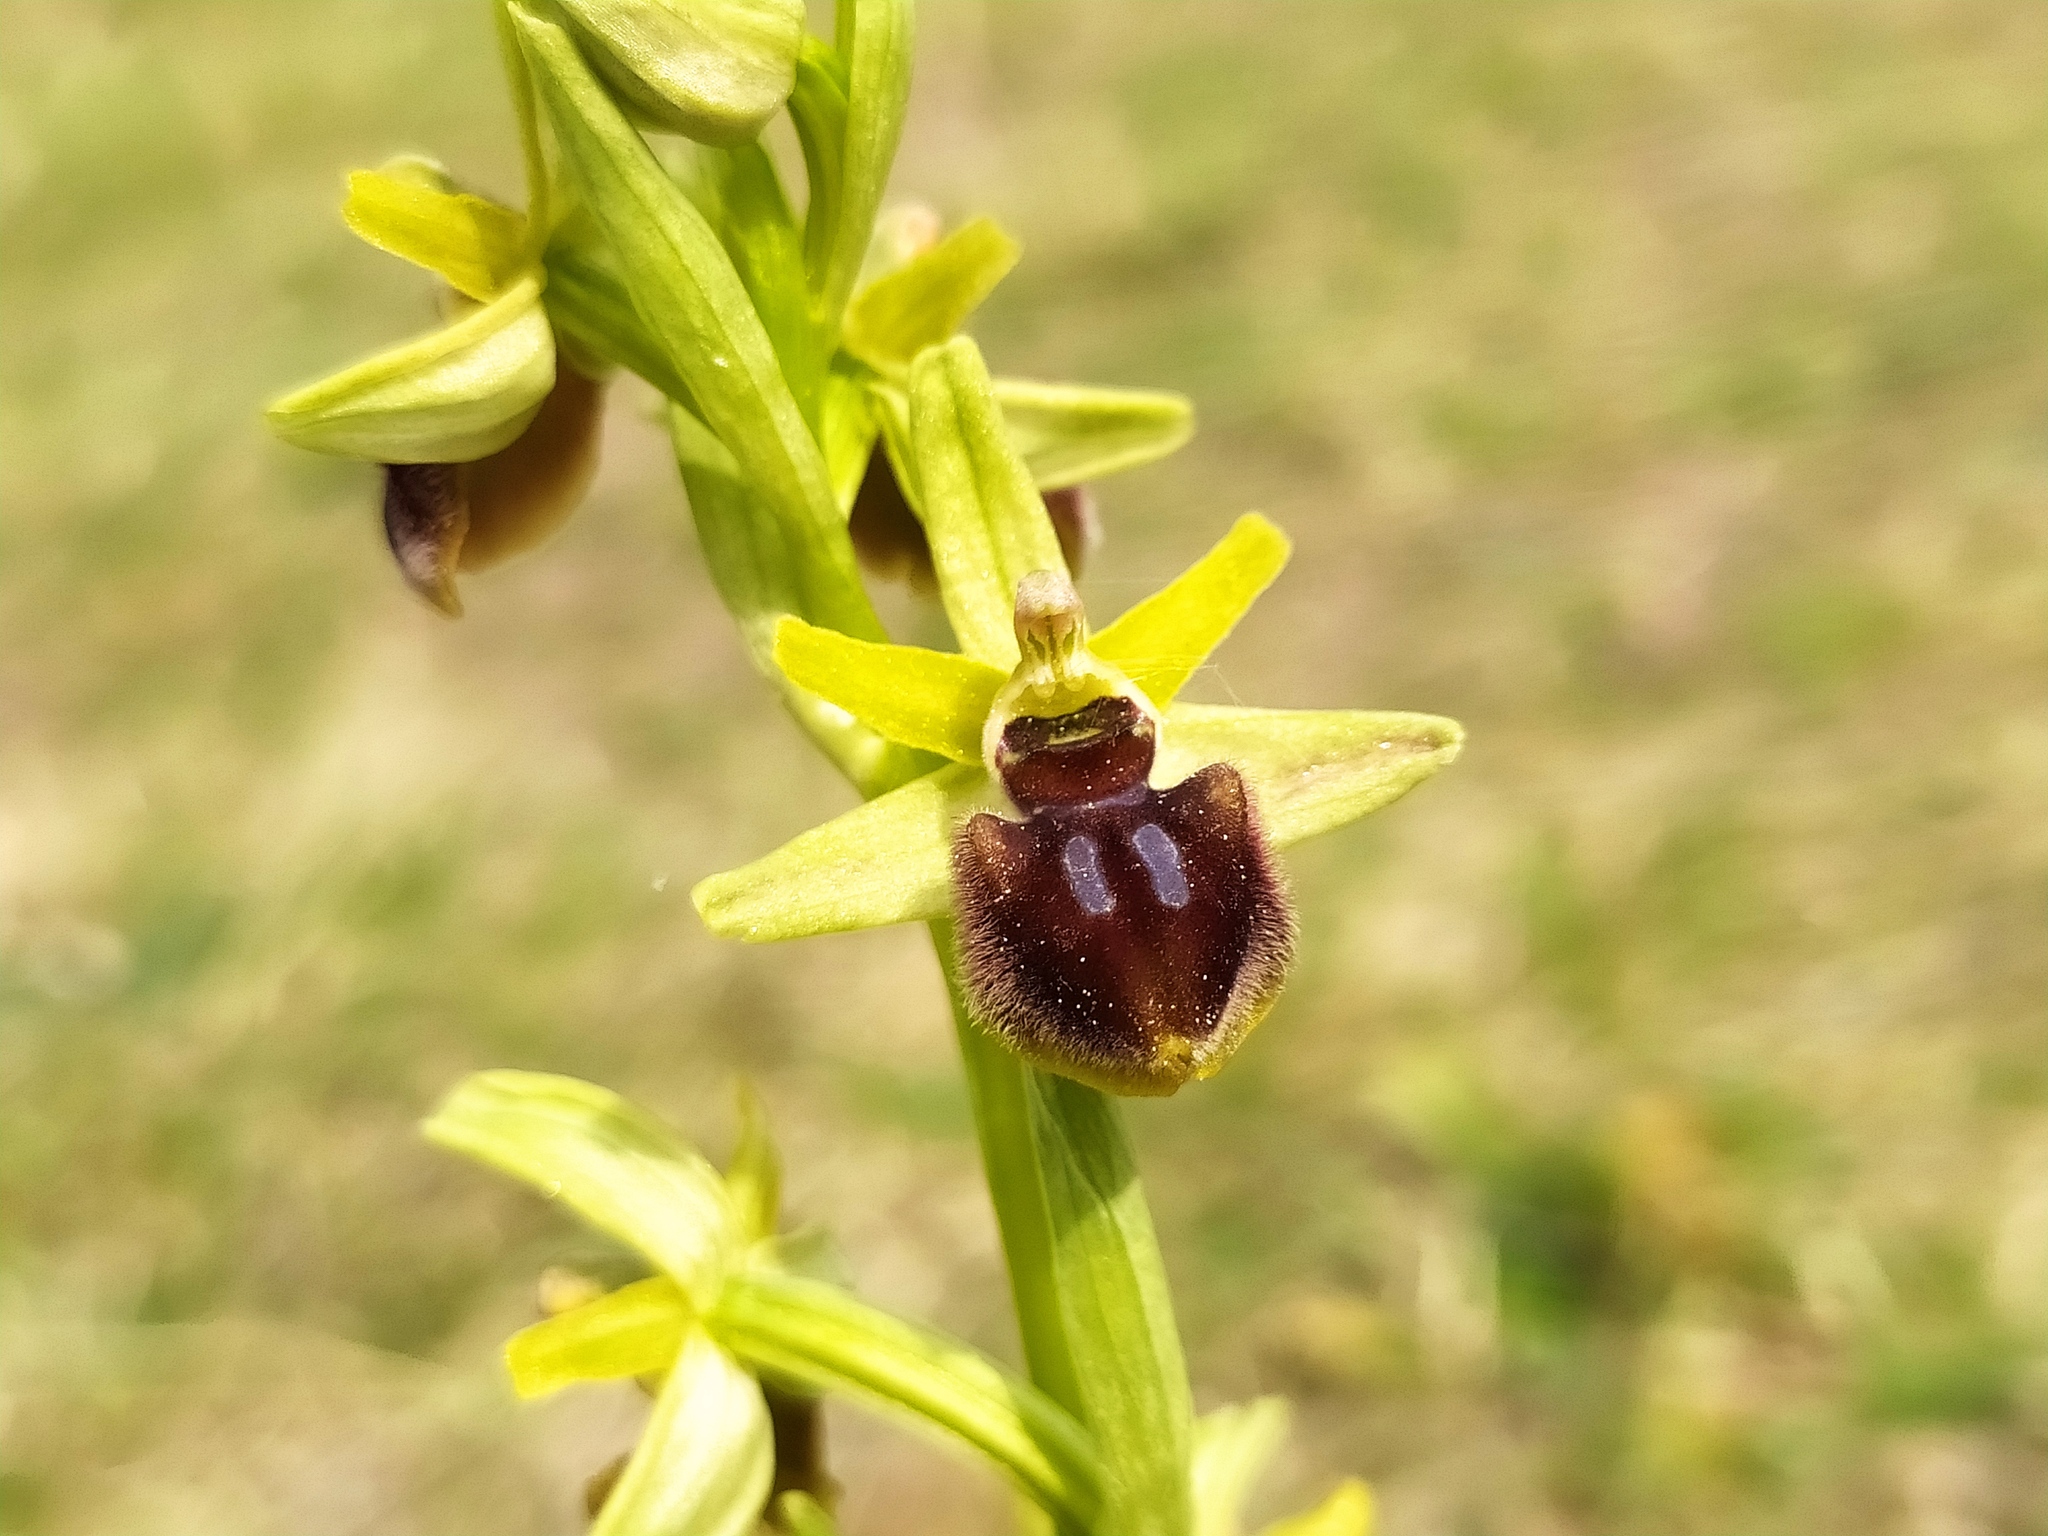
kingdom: Plantae
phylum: Tracheophyta
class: Liliopsida
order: Asparagales
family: Orchidaceae
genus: Ophrys
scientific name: Ophrys sphegodes
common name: Early spider-orchid
